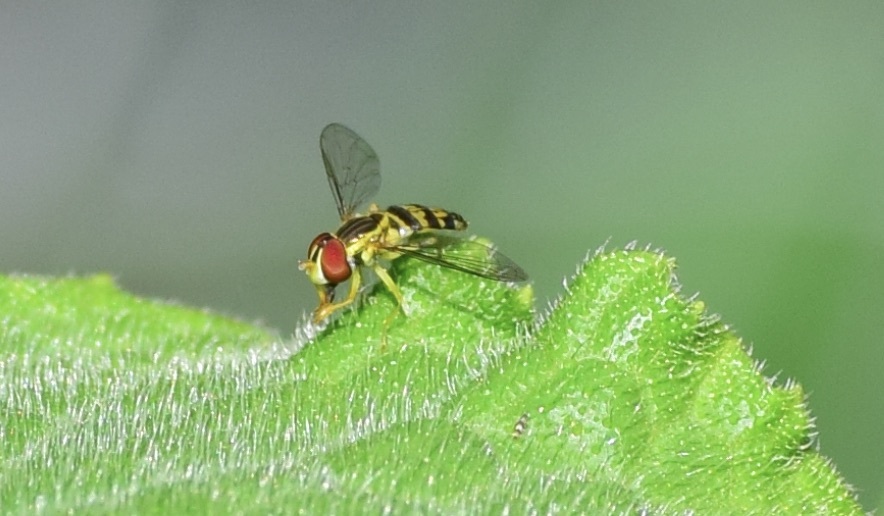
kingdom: Animalia
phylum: Arthropoda
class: Insecta
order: Diptera
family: Syrphidae
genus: Toxomerus
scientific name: Toxomerus geminatus
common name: Eastern calligrapher
